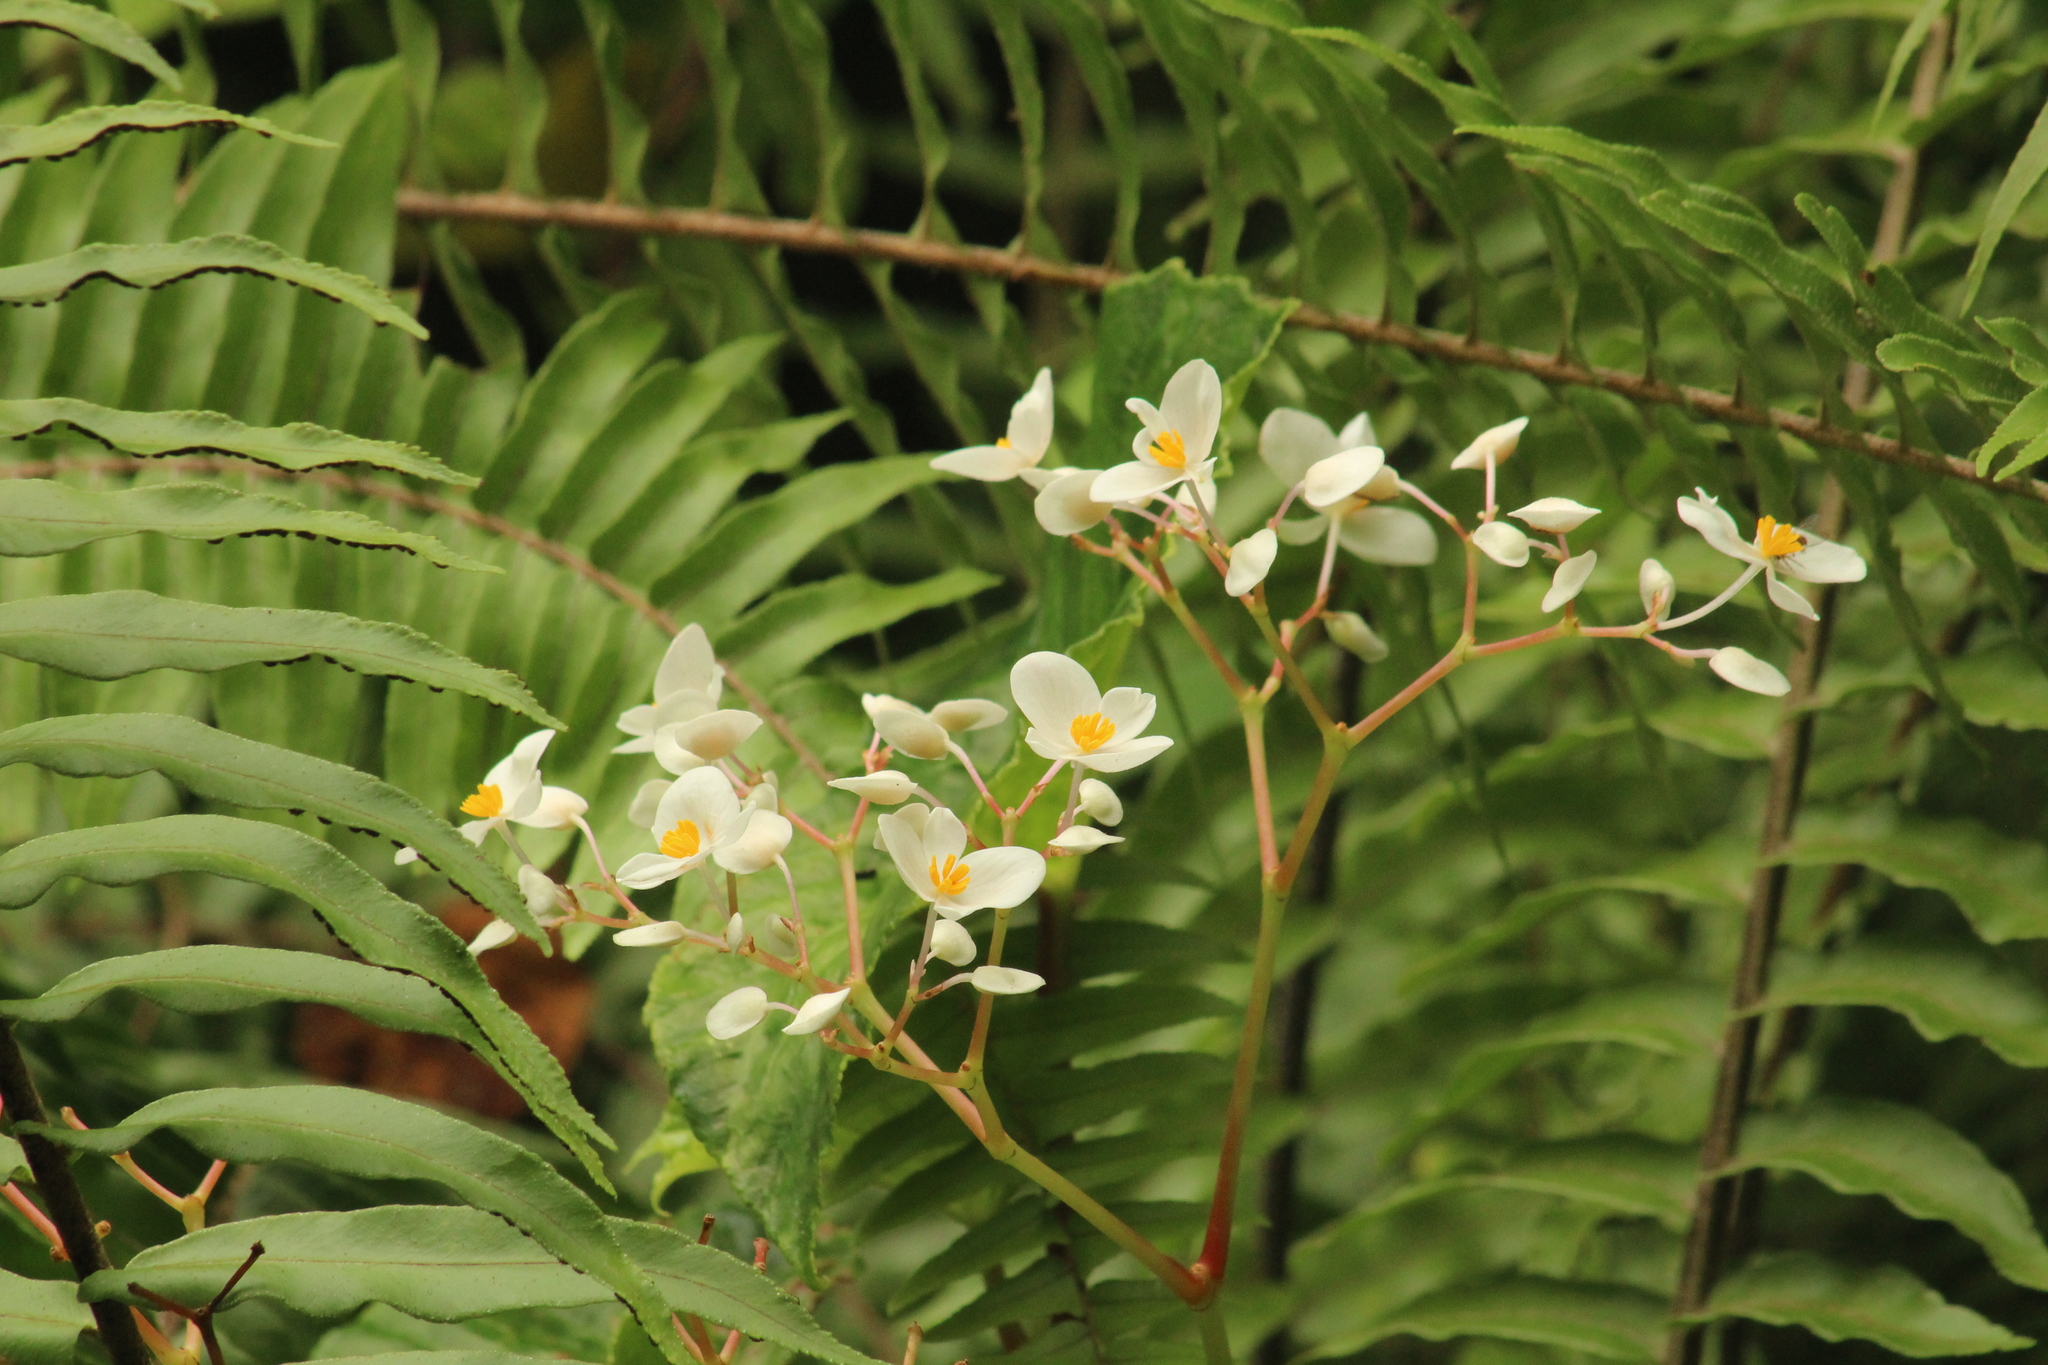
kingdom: Plantae
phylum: Tracheophyta
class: Magnoliopsida
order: Cucurbitales
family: Begoniaceae
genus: Begonia
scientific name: Begonia retusa
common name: Begonia
